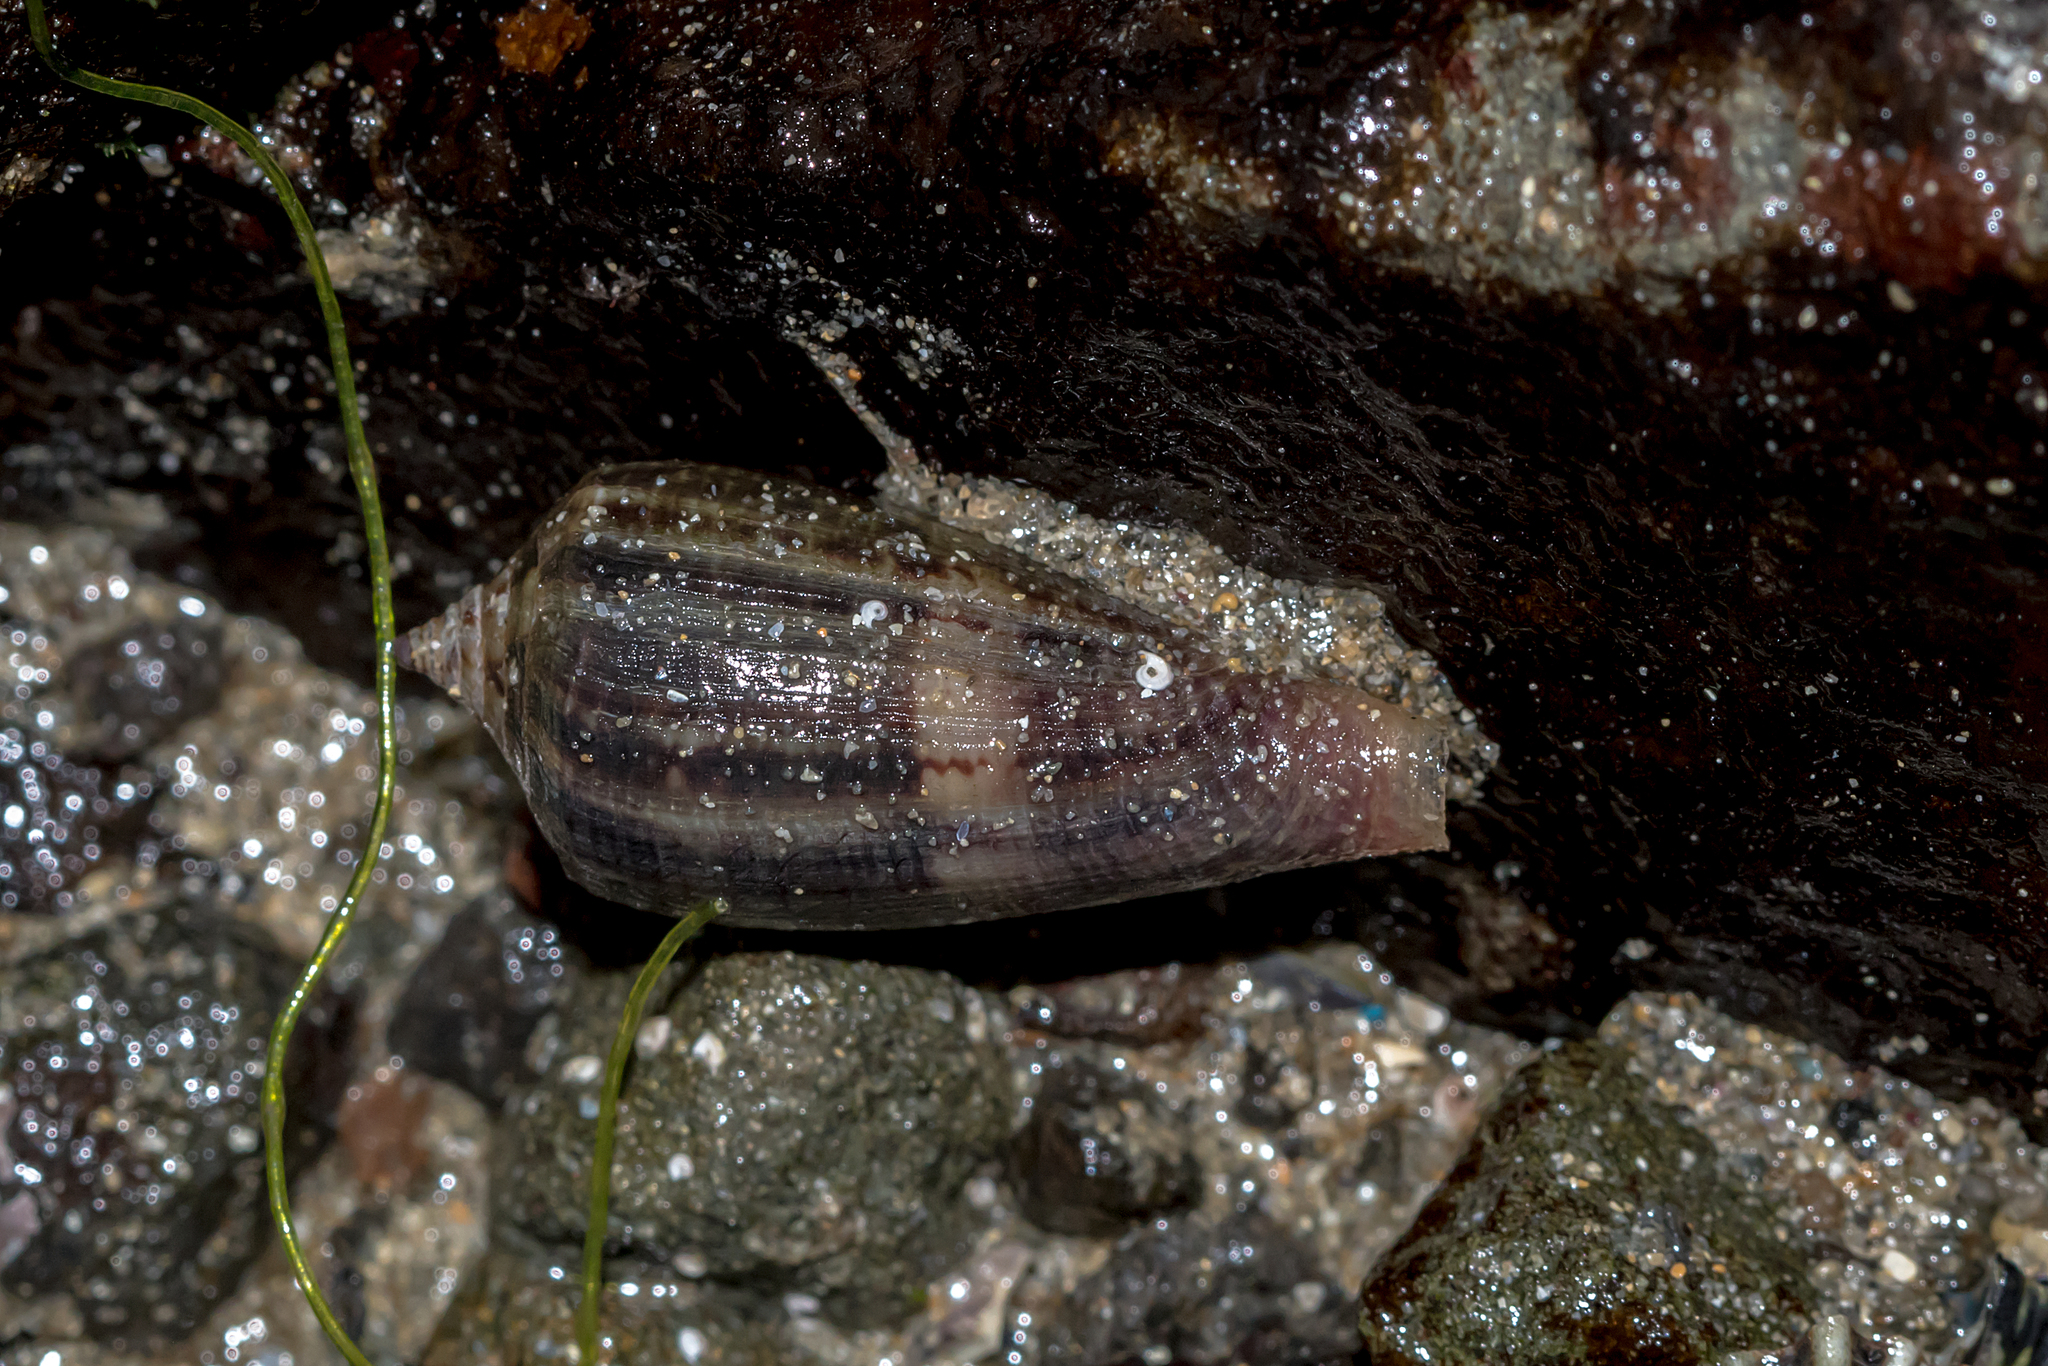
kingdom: Animalia
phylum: Mollusca
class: Gastropoda
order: Neogastropoda
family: Conidae
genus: Conus
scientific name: Conus anemone
